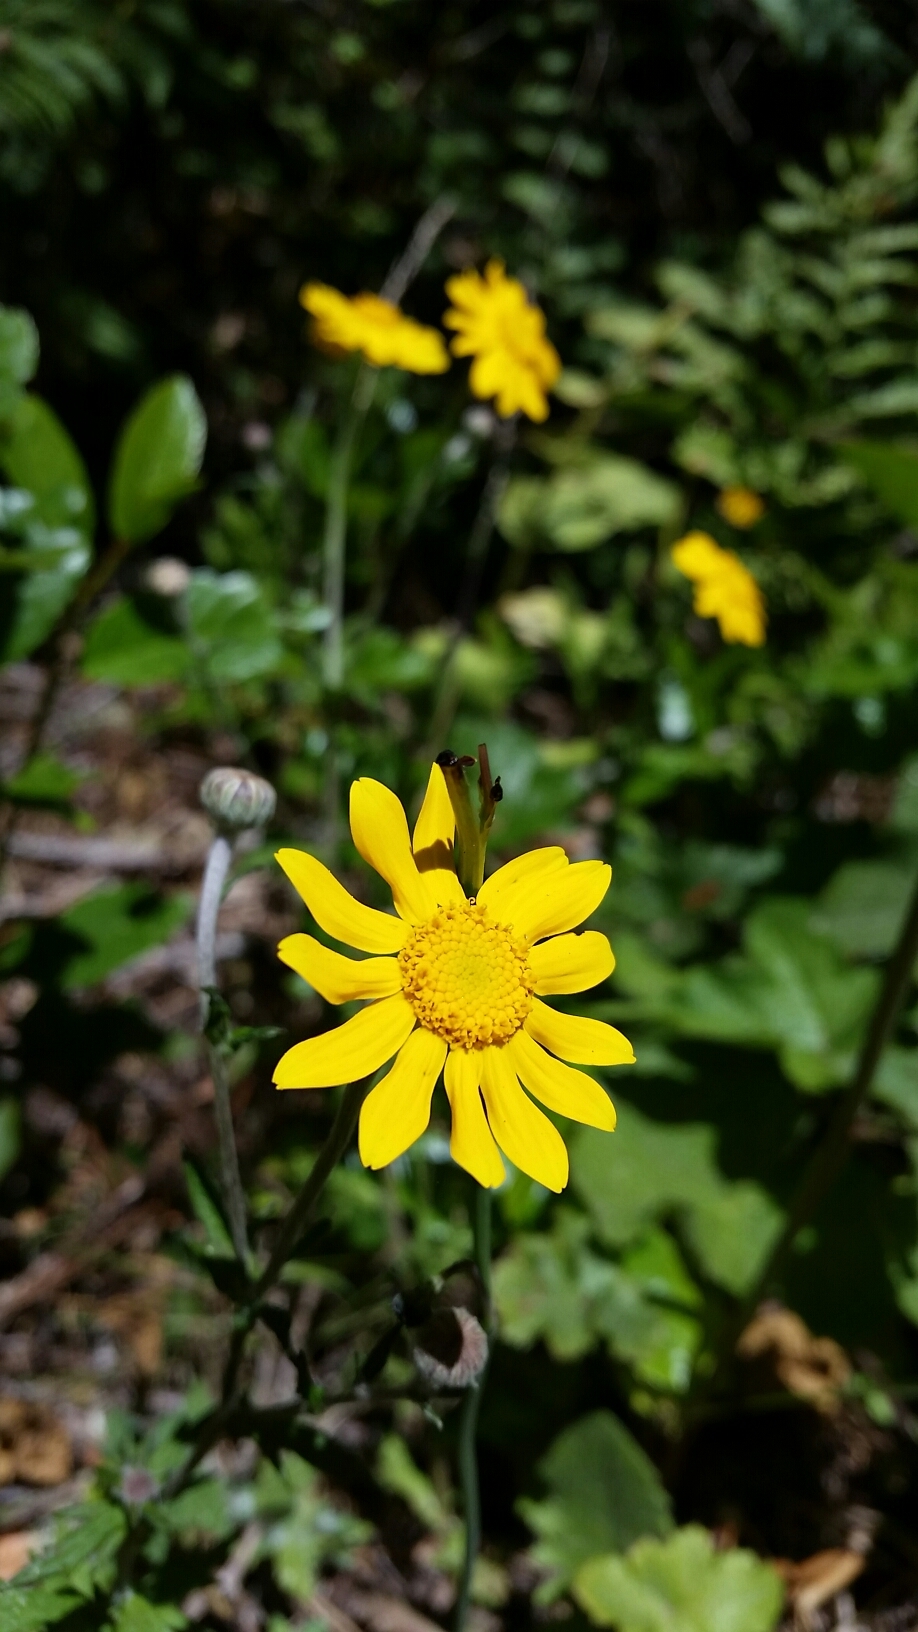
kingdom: Plantae
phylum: Tracheophyta
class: Magnoliopsida
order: Asterales
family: Asteraceae
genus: Eriophyllum
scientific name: Eriophyllum lanatum
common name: Common woolly-sunflower
